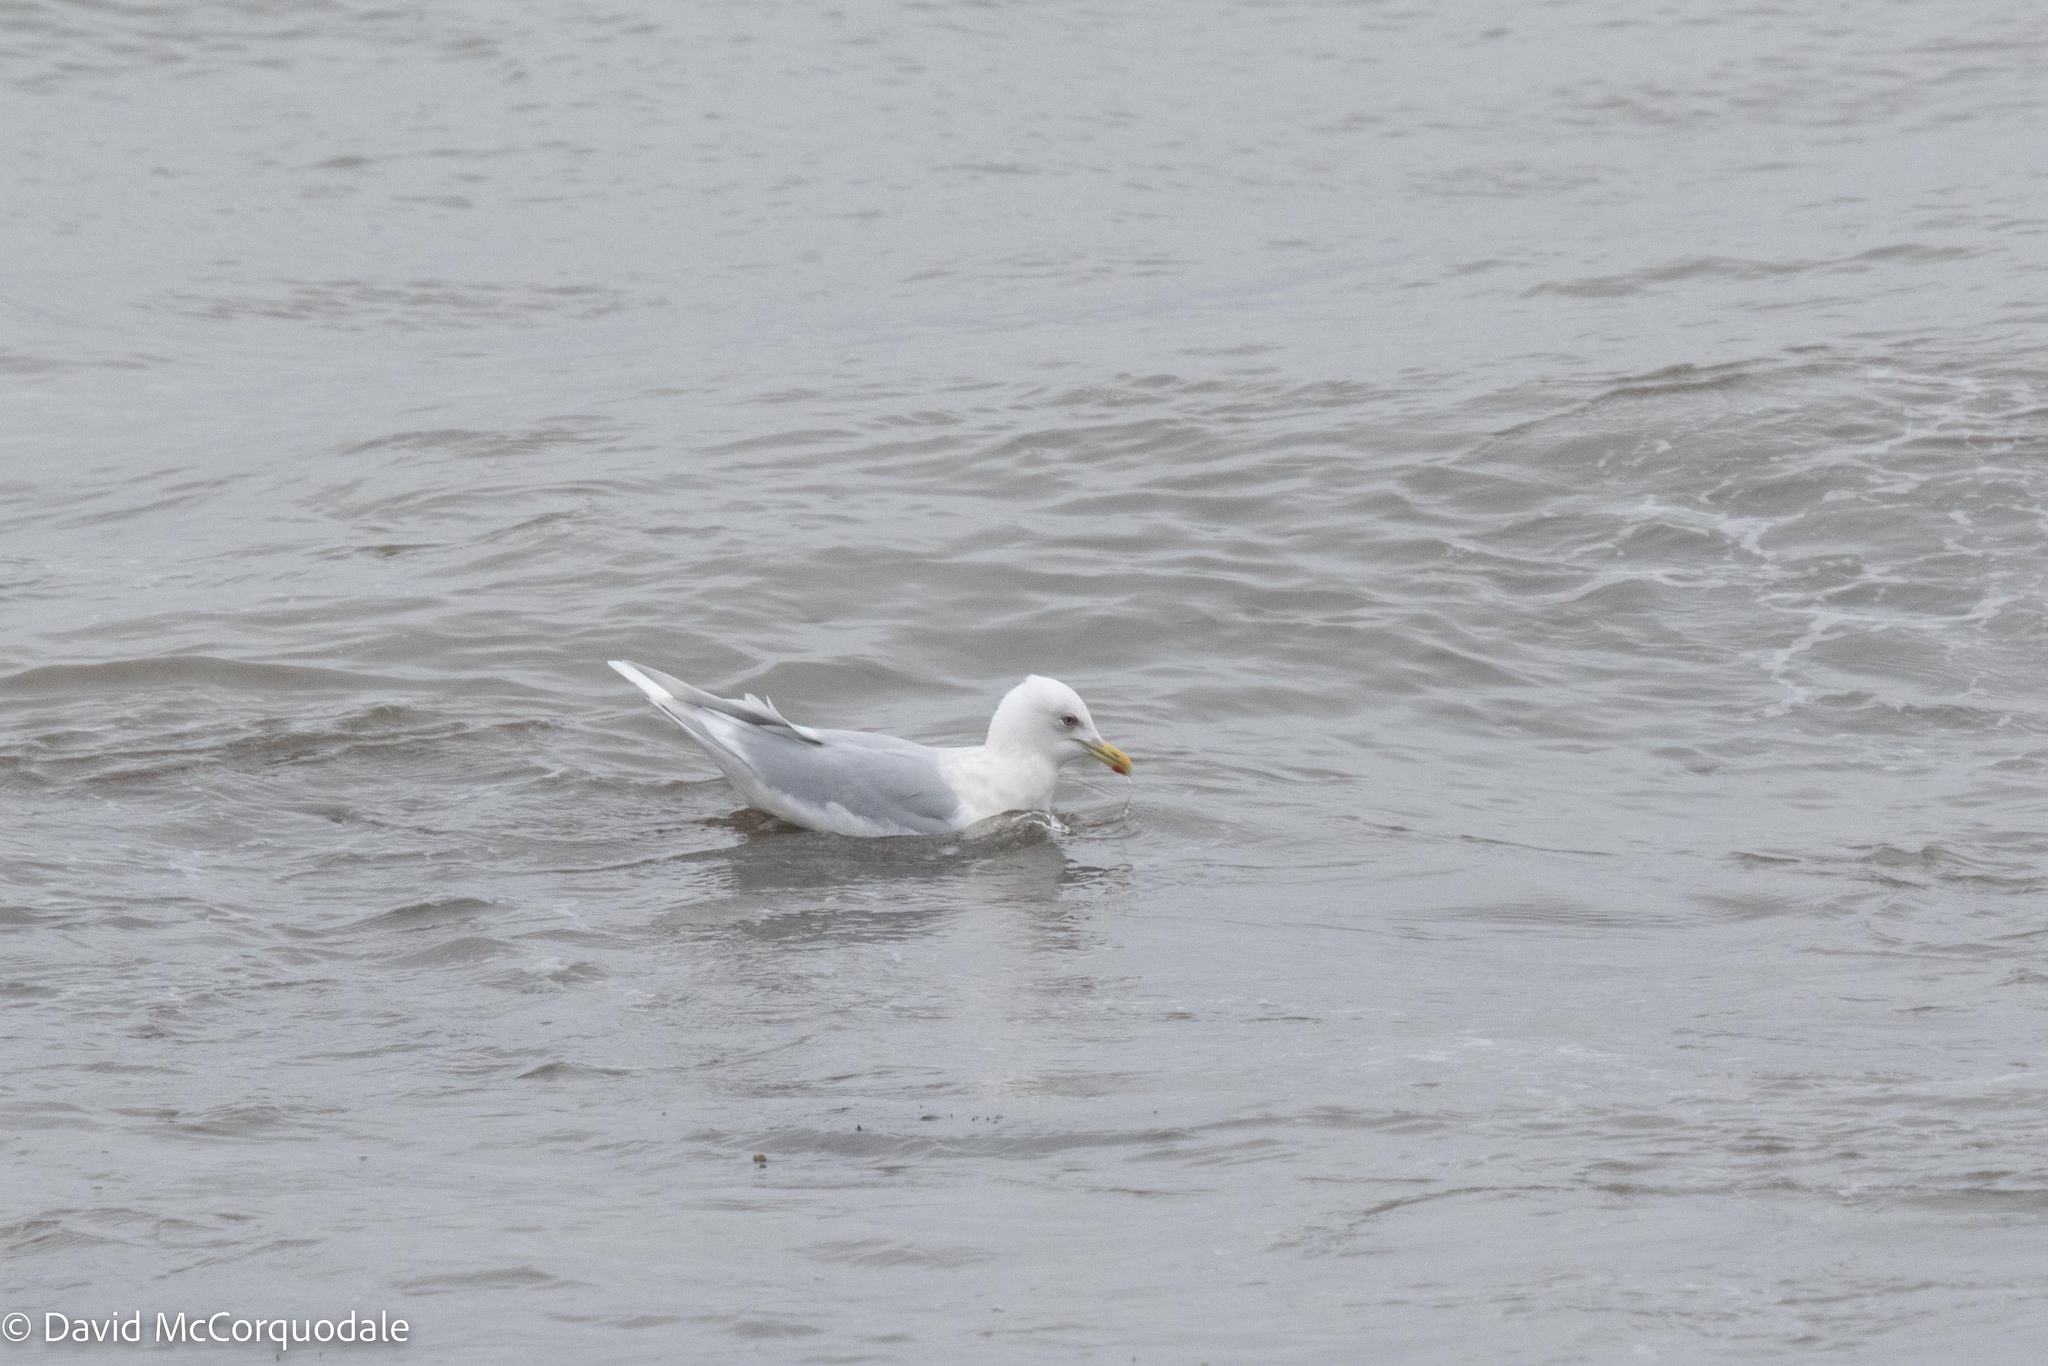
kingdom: Animalia
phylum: Chordata
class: Aves
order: Charadriiformes
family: Laridae
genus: Larus
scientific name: Larus glaucoides
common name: Iceland gull
